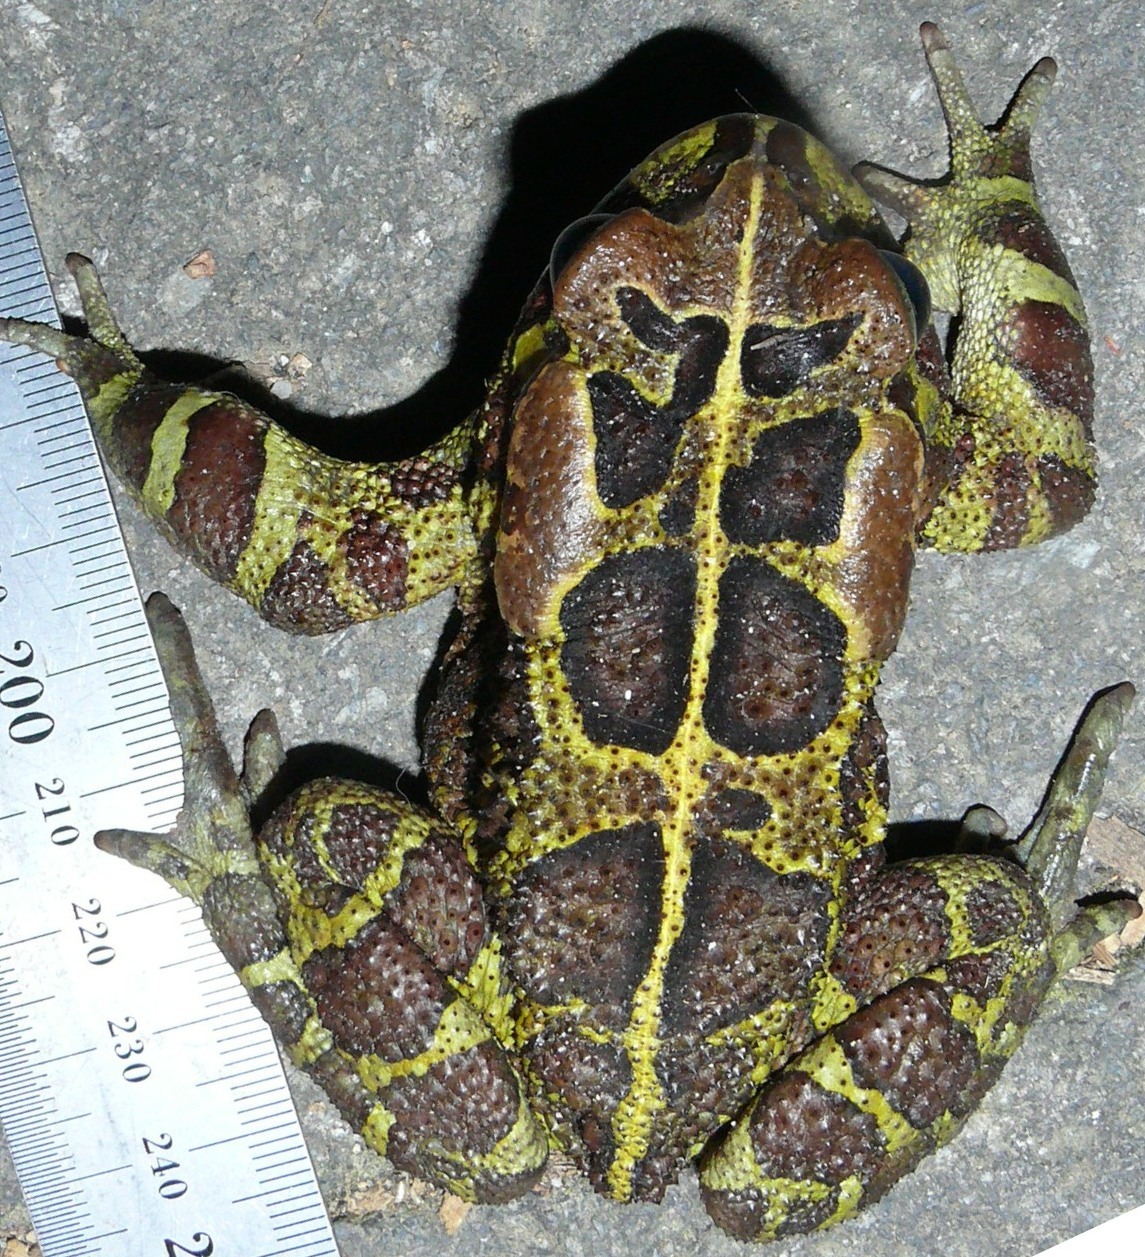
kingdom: Animalia
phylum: Chordata
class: Amphibia
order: Anura
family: Bufonidae
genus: Sclerophrys
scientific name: Sclerophrys pantherina
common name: Panther toad
